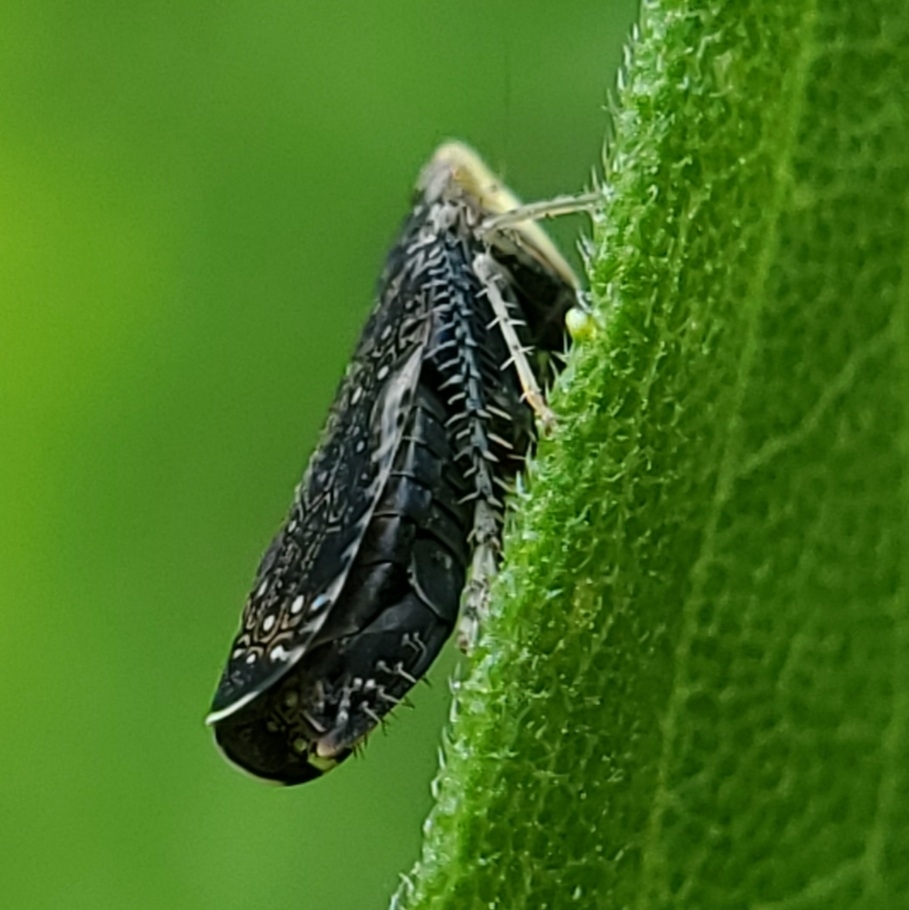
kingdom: Animalia
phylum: Arthropoda
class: Insecta
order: Hemiptera
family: Cicadellidae
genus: Scaphytopius
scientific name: Scaphytopius frontalis
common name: The yellow-faced leafhopper
